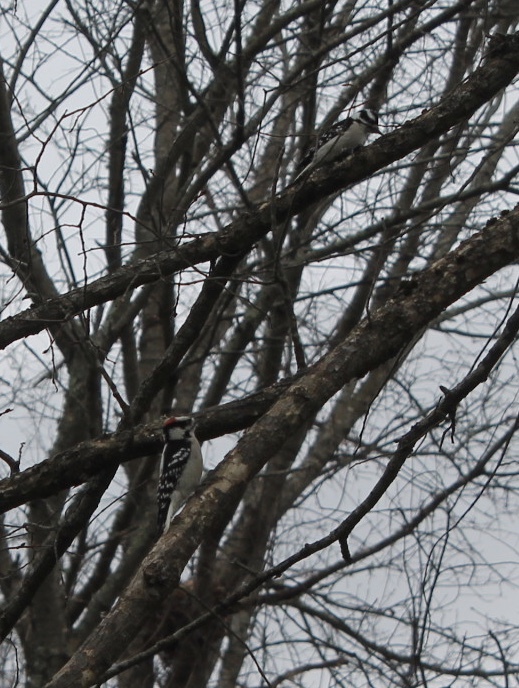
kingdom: Animalia
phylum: Chordata
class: Aves
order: Piciformes
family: Picidae
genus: Dryobates
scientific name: Dryobates pubescens
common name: Downy woodpecker
